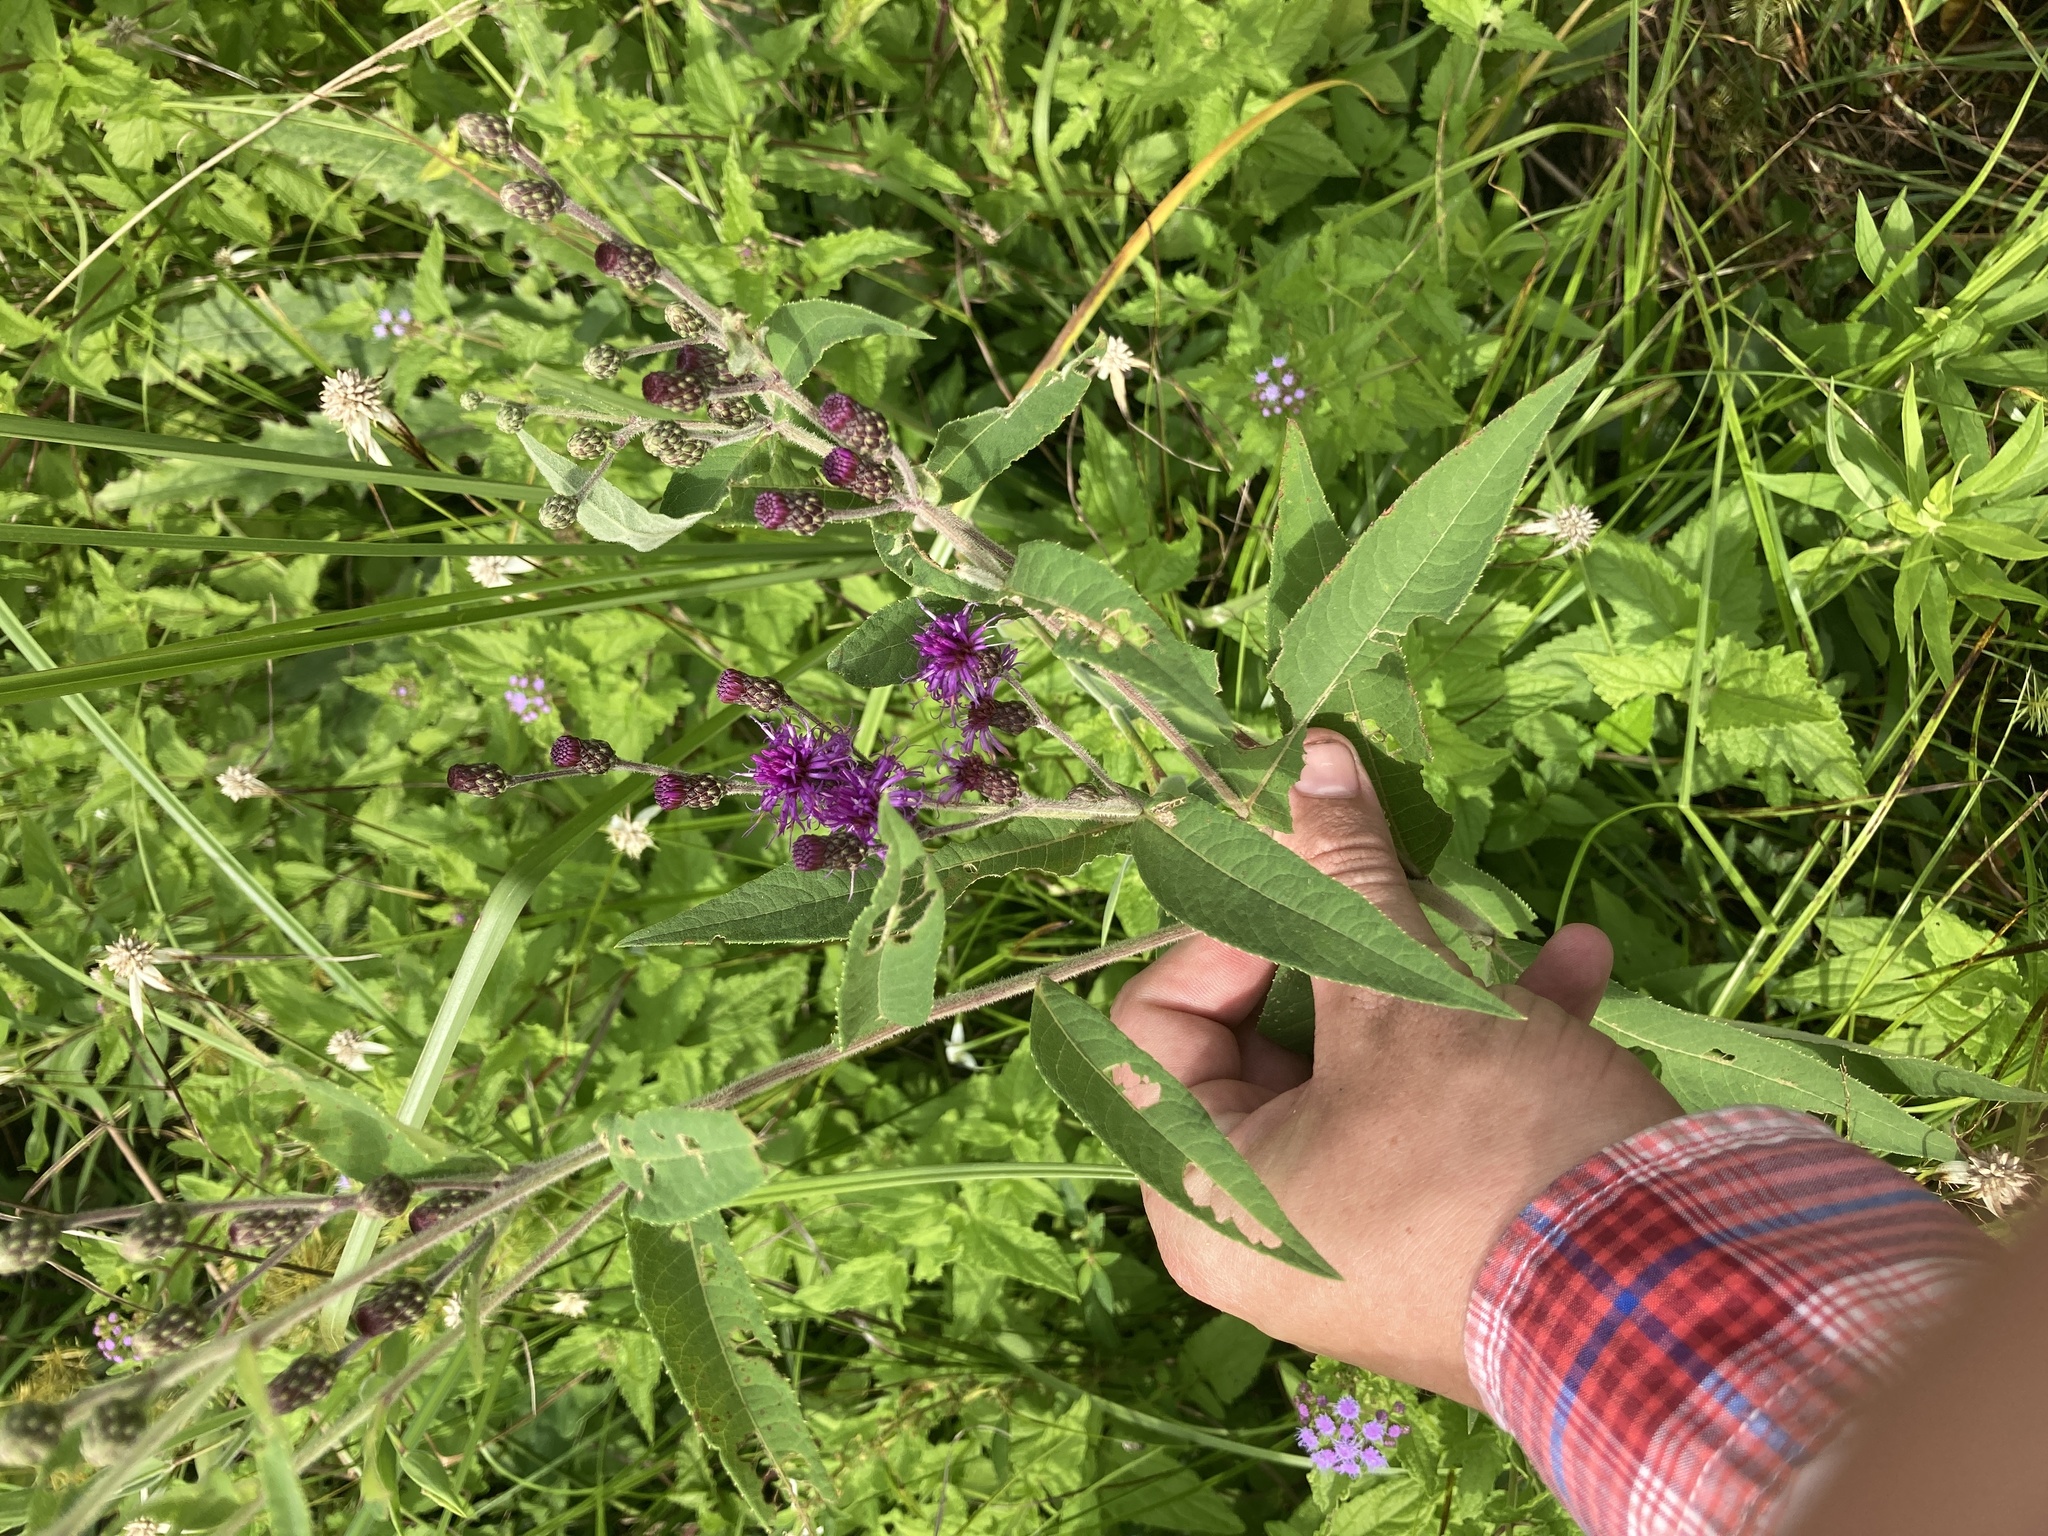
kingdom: Plantae
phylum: Tracheophyta
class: Magnoliopsida
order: Asterales
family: Asteraceae
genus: Vernonia
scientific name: Vernonia missurica
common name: Missouri ironweed
